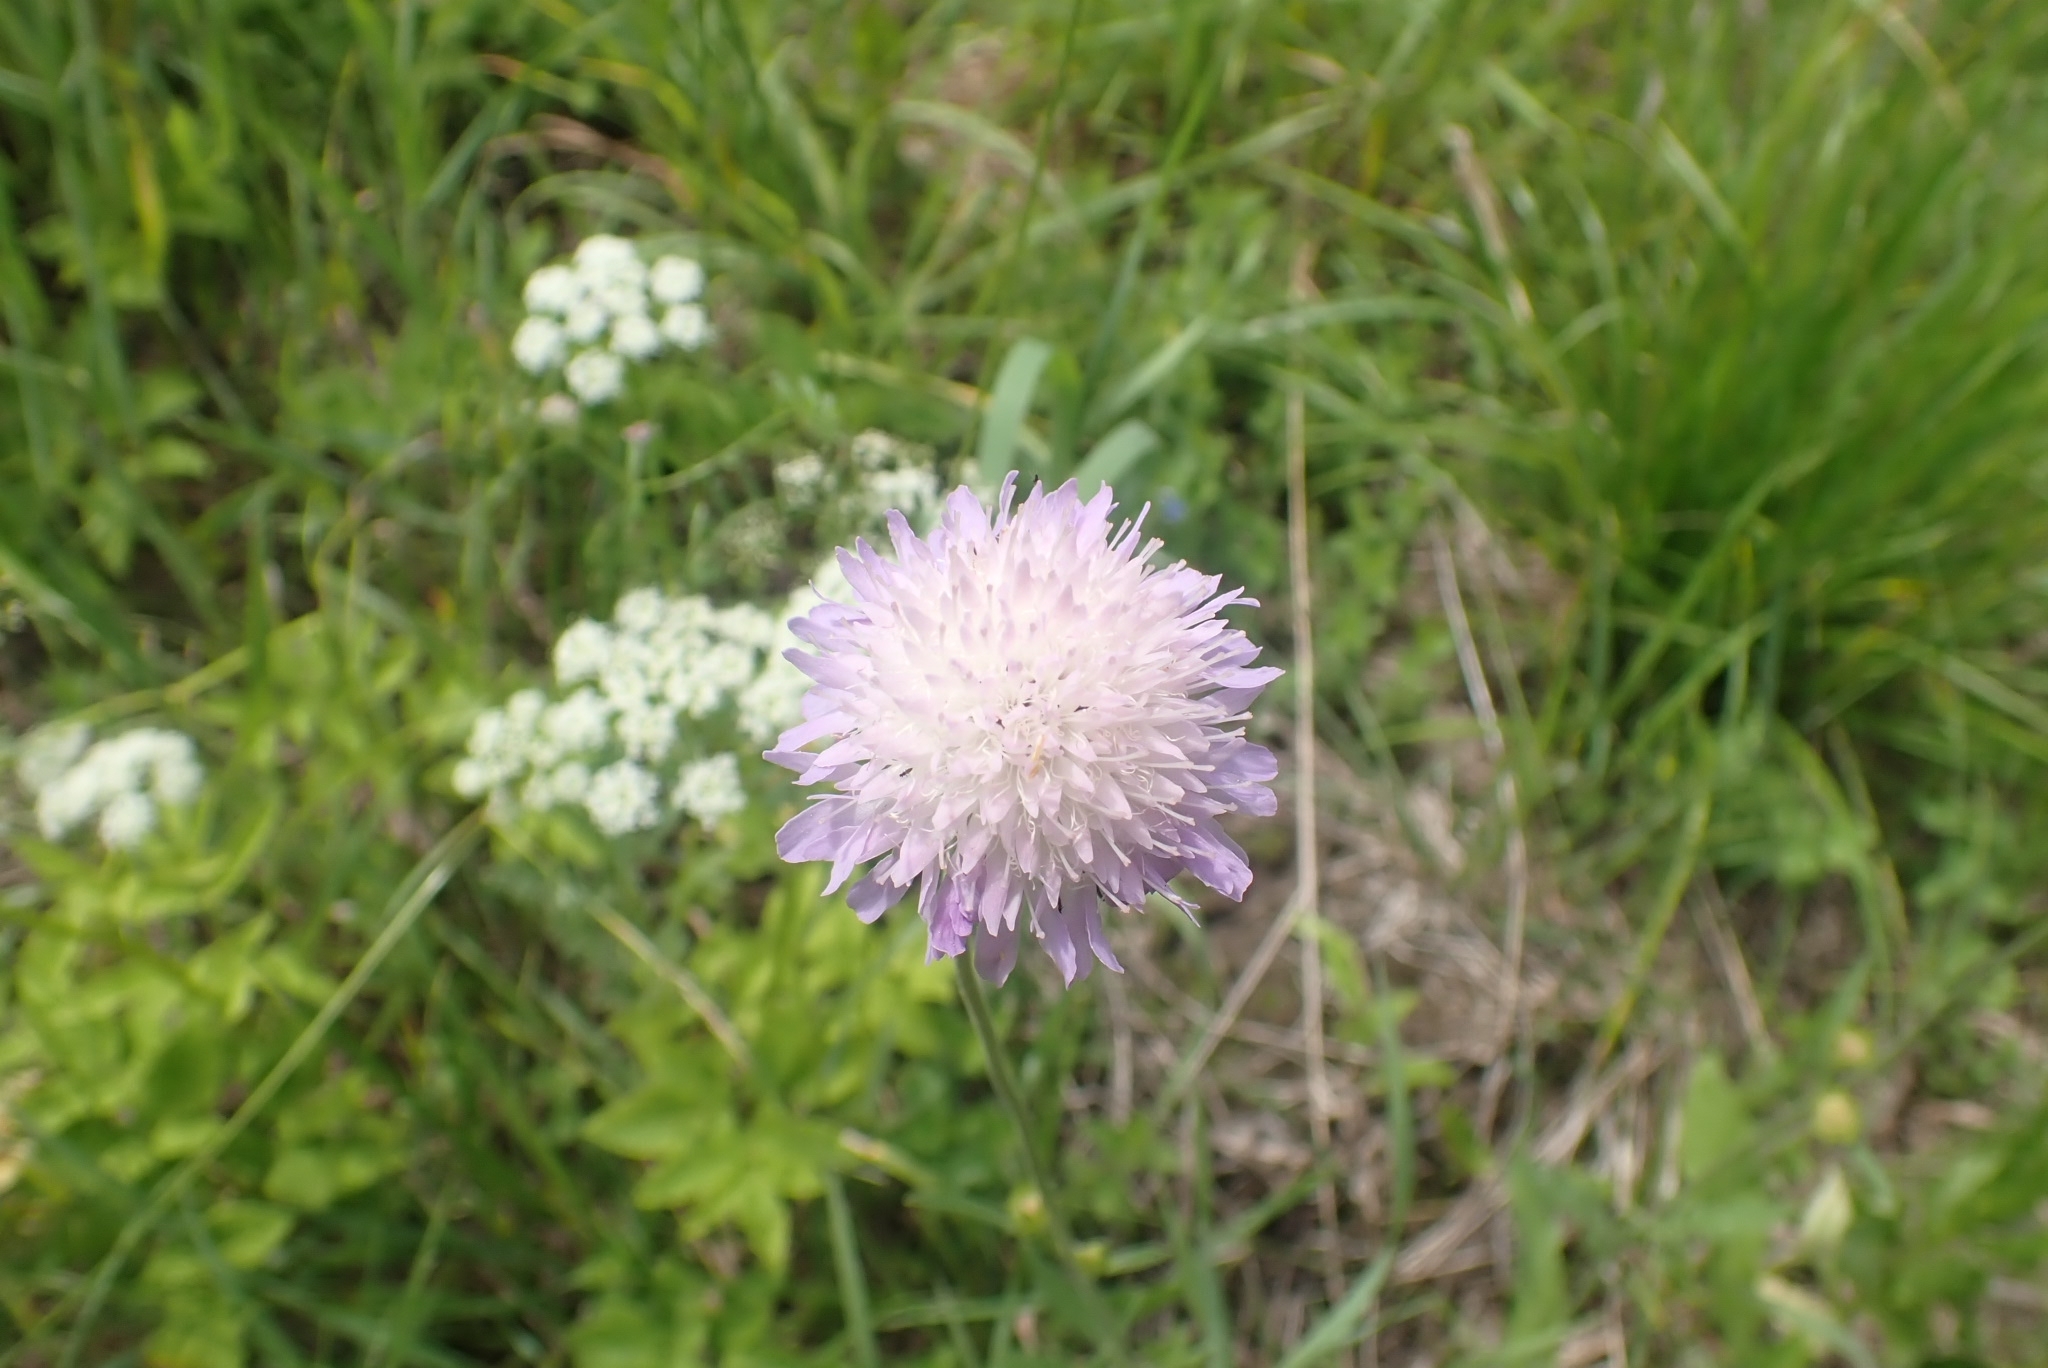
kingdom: Plantae
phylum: Tracheophyta
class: Magnoliopsida
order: Dipsacales
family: Caprifoliaceae
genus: Knautia
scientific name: Knautia arvensis
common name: Field scabiosa
